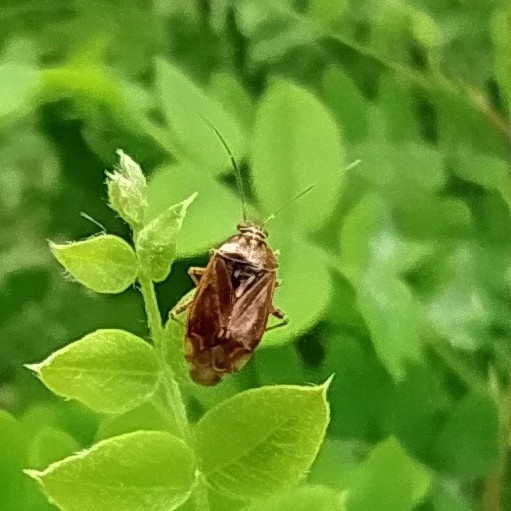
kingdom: Animalia
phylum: Arthropoda
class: Insecta
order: Hemiptera
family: Miridae
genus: Deraeocoris
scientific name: Deraeocoris lutescens
